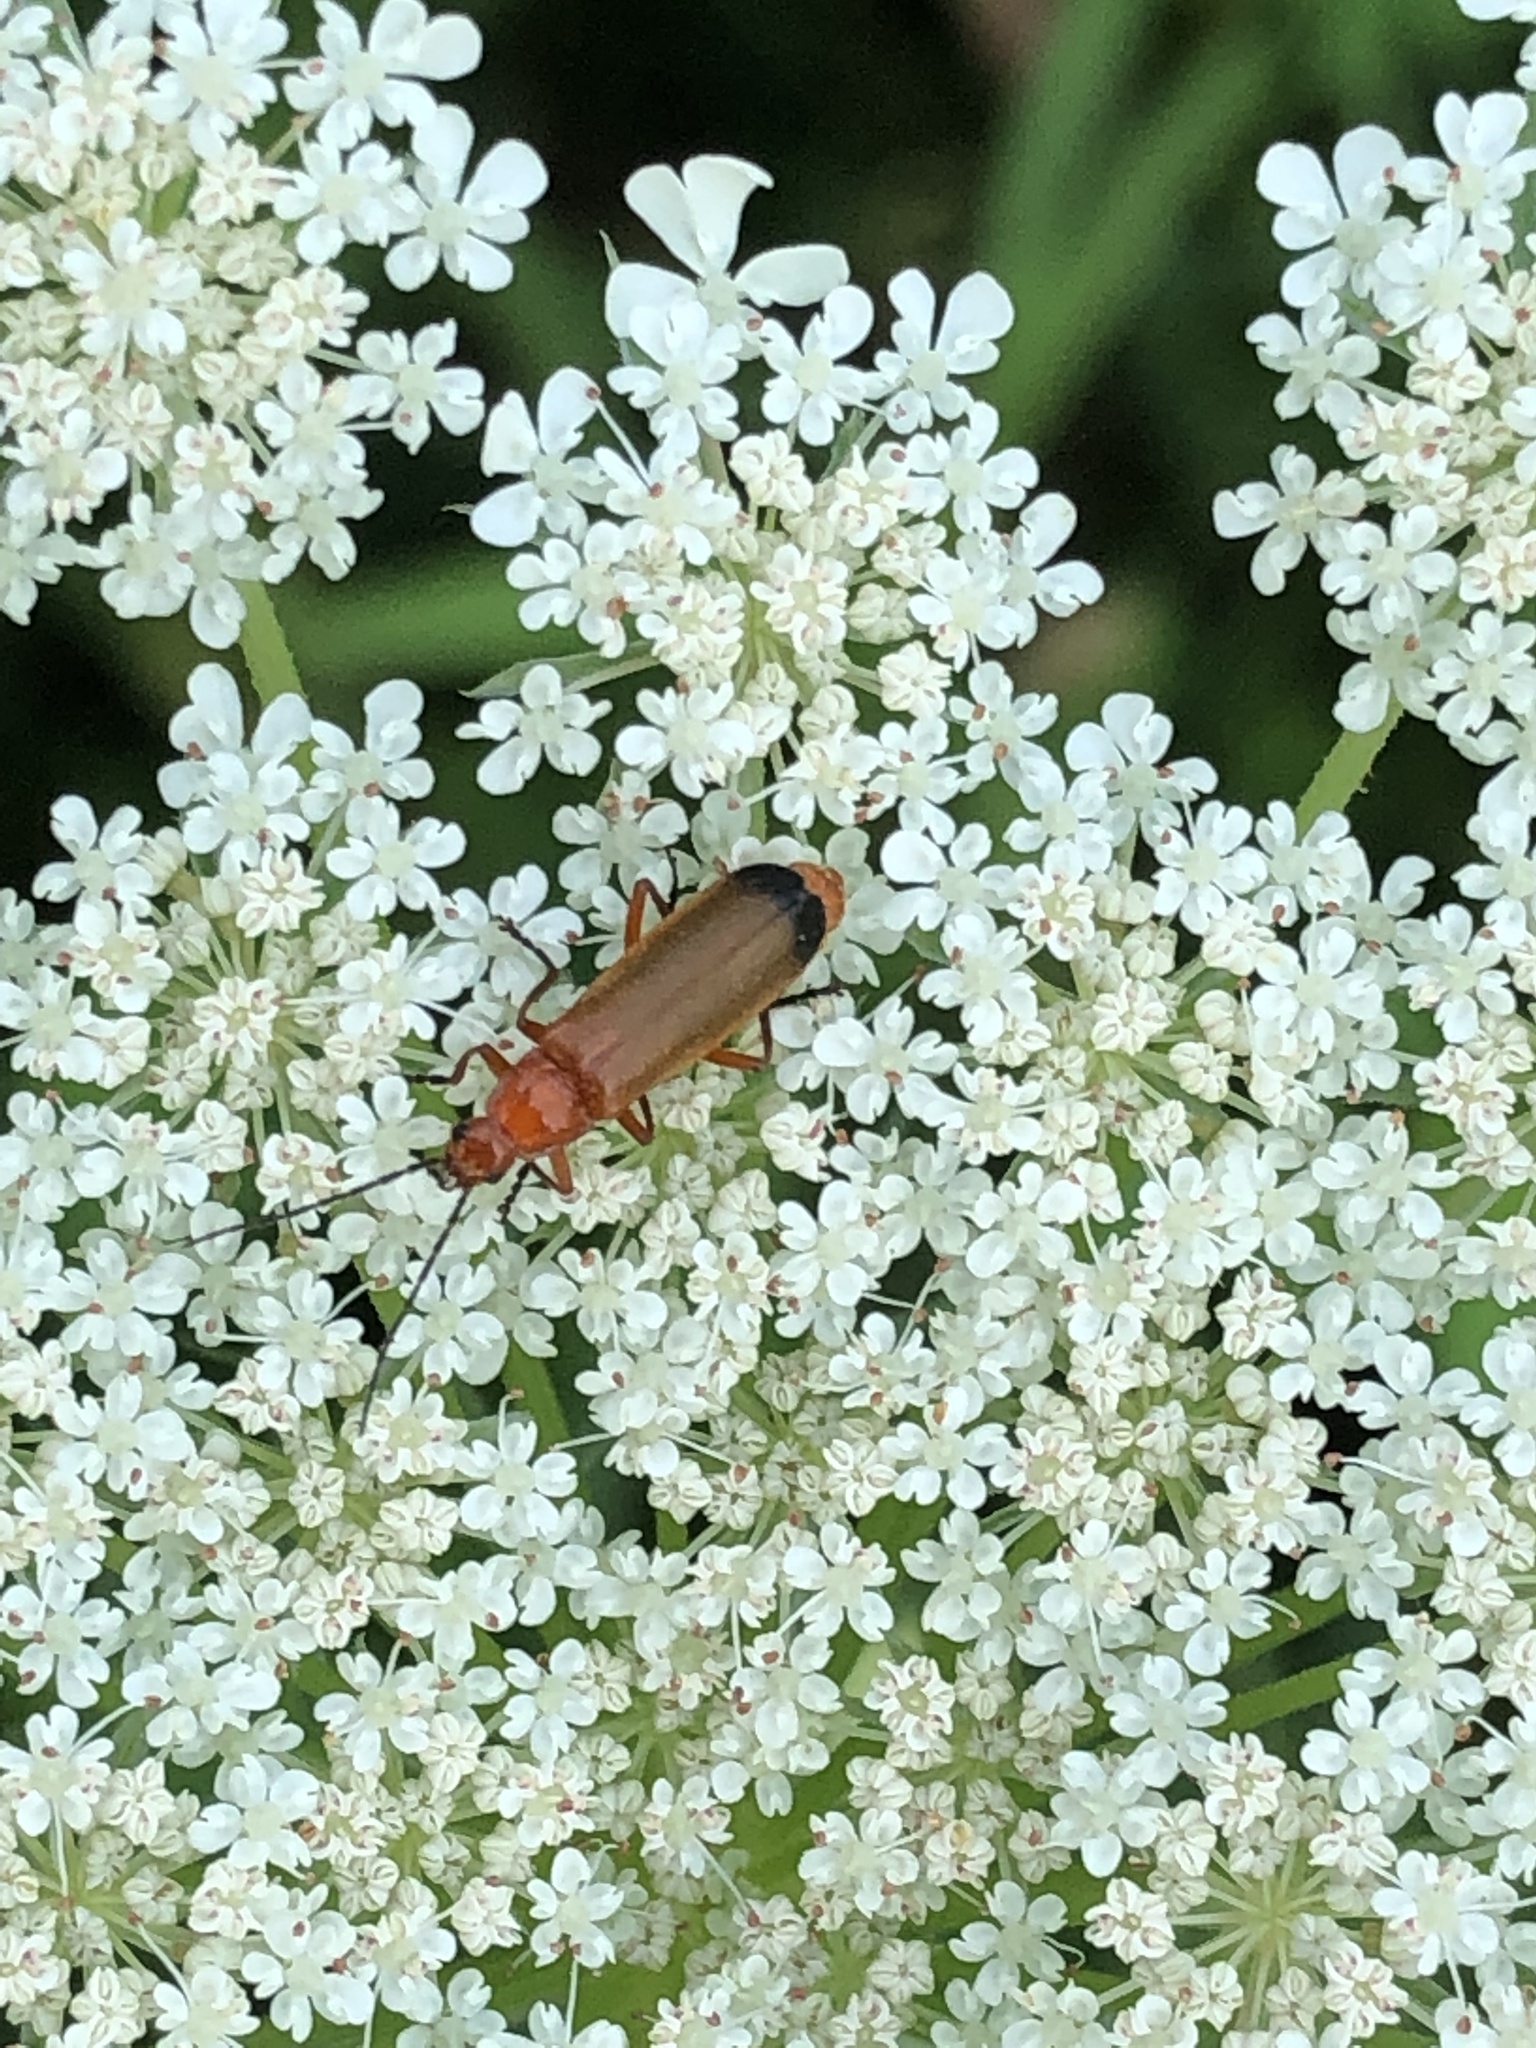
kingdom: Animalia
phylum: Arthropoda
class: Insecta
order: Coleoptera
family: Cantharidae
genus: Rhagonycha
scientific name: Rhagonycha fulva
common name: Common red soldier beetle
